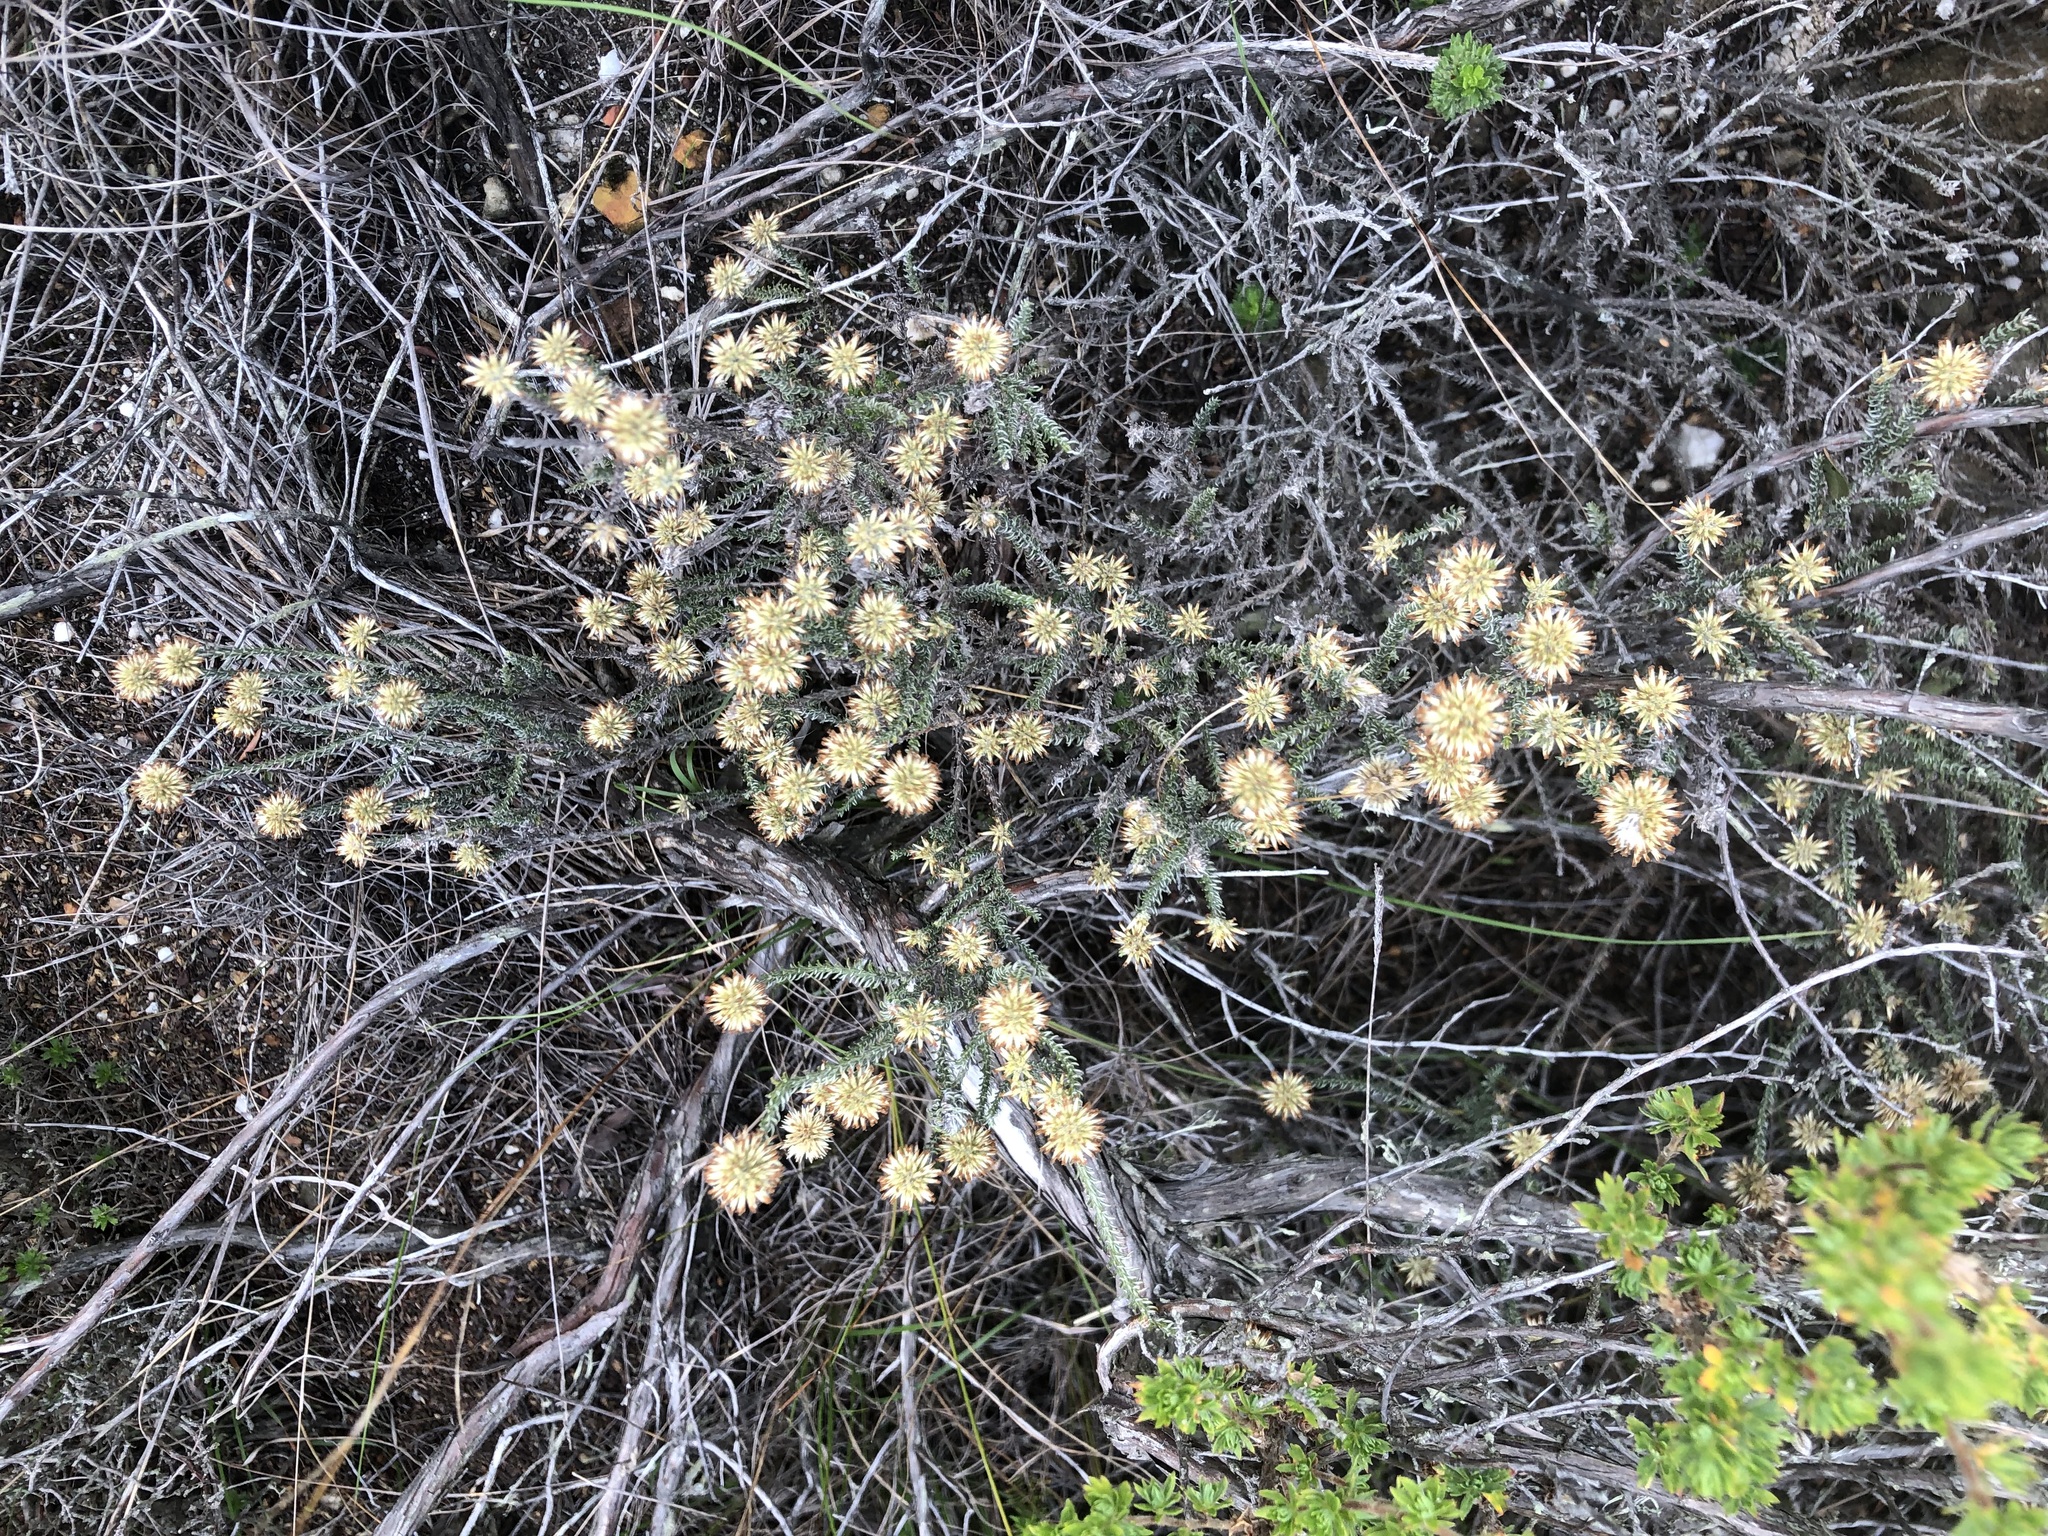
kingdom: Plantae
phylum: Tracheophyta
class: Magnoliopsida
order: Asterales
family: Asteraceae
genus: Seriphium
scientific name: Seriphium spirale
